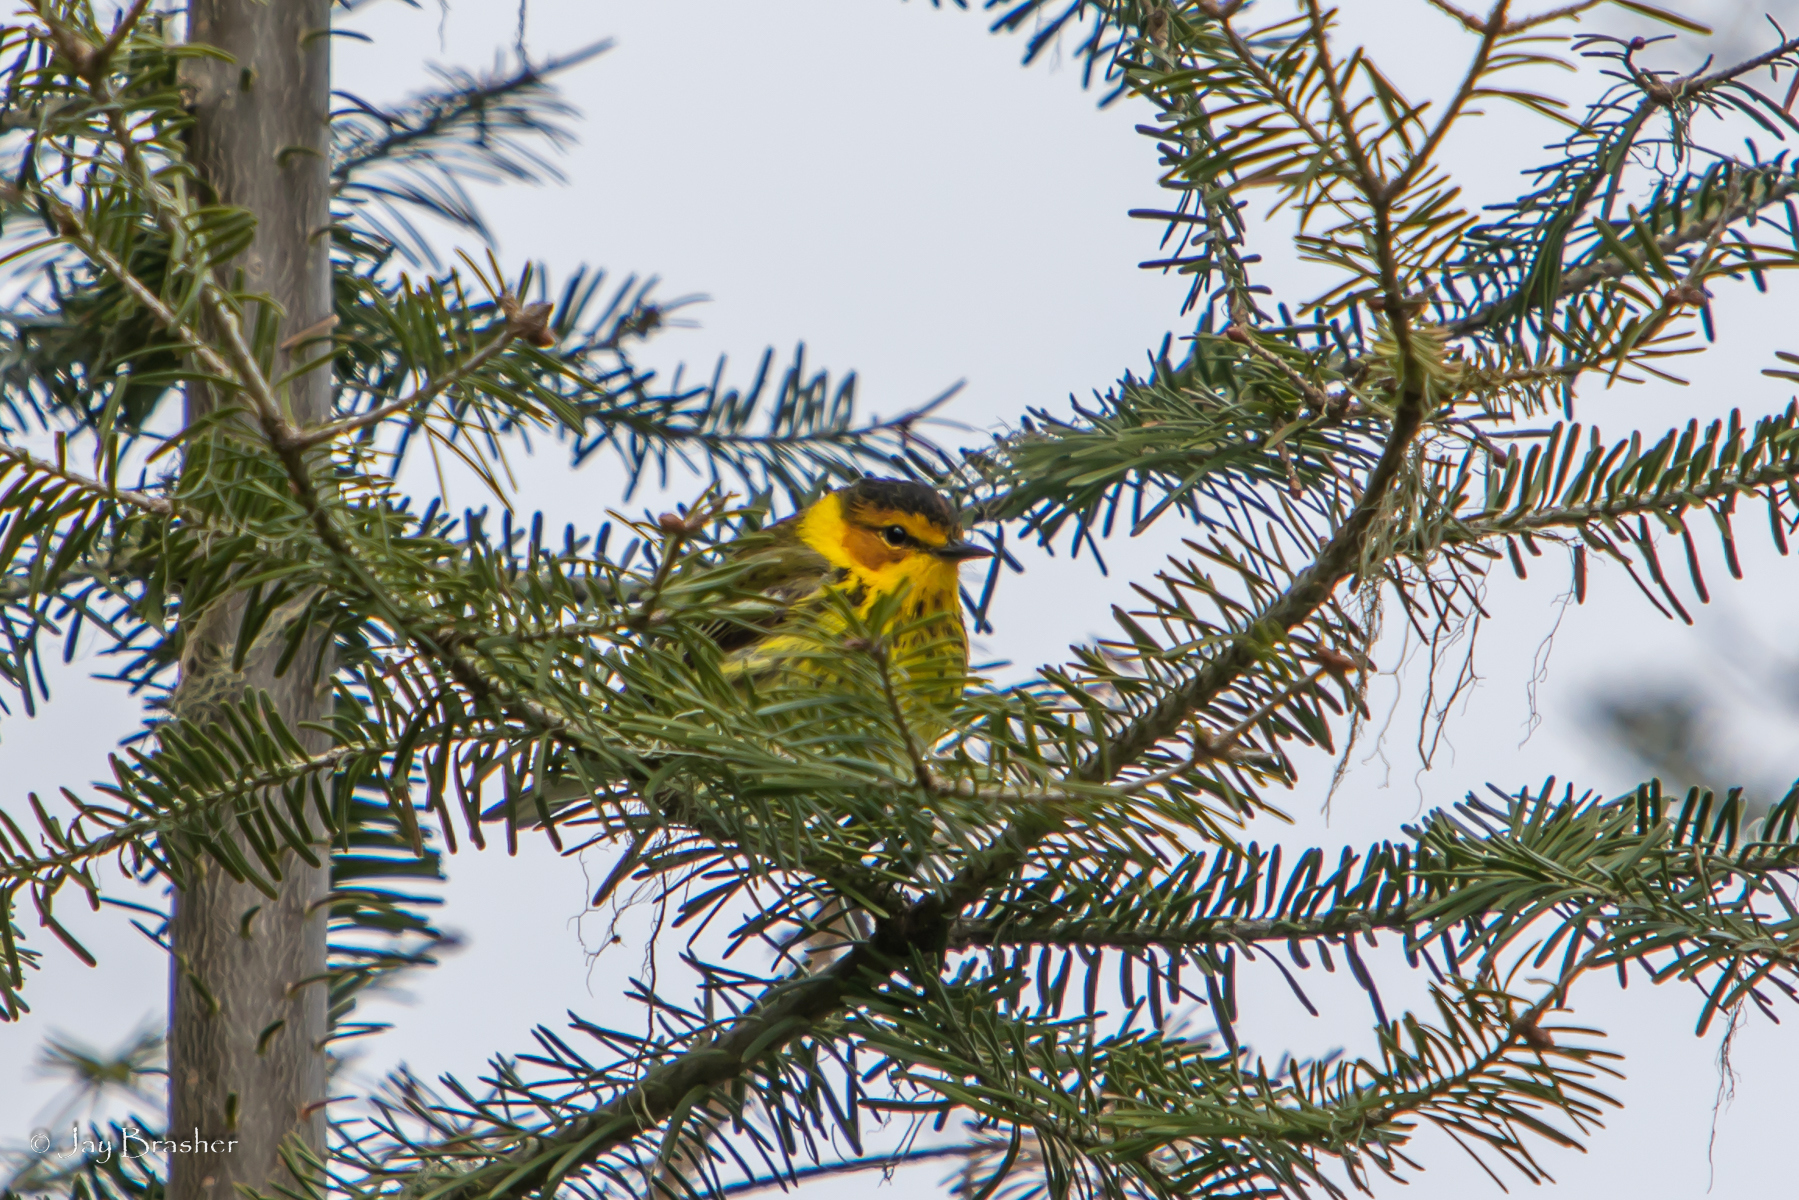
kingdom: Animalia
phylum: Chordata
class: Aves
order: Passeriformes
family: Parulidae
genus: Setophaga
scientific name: Setophaga tigrina
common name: Cape may warbler
